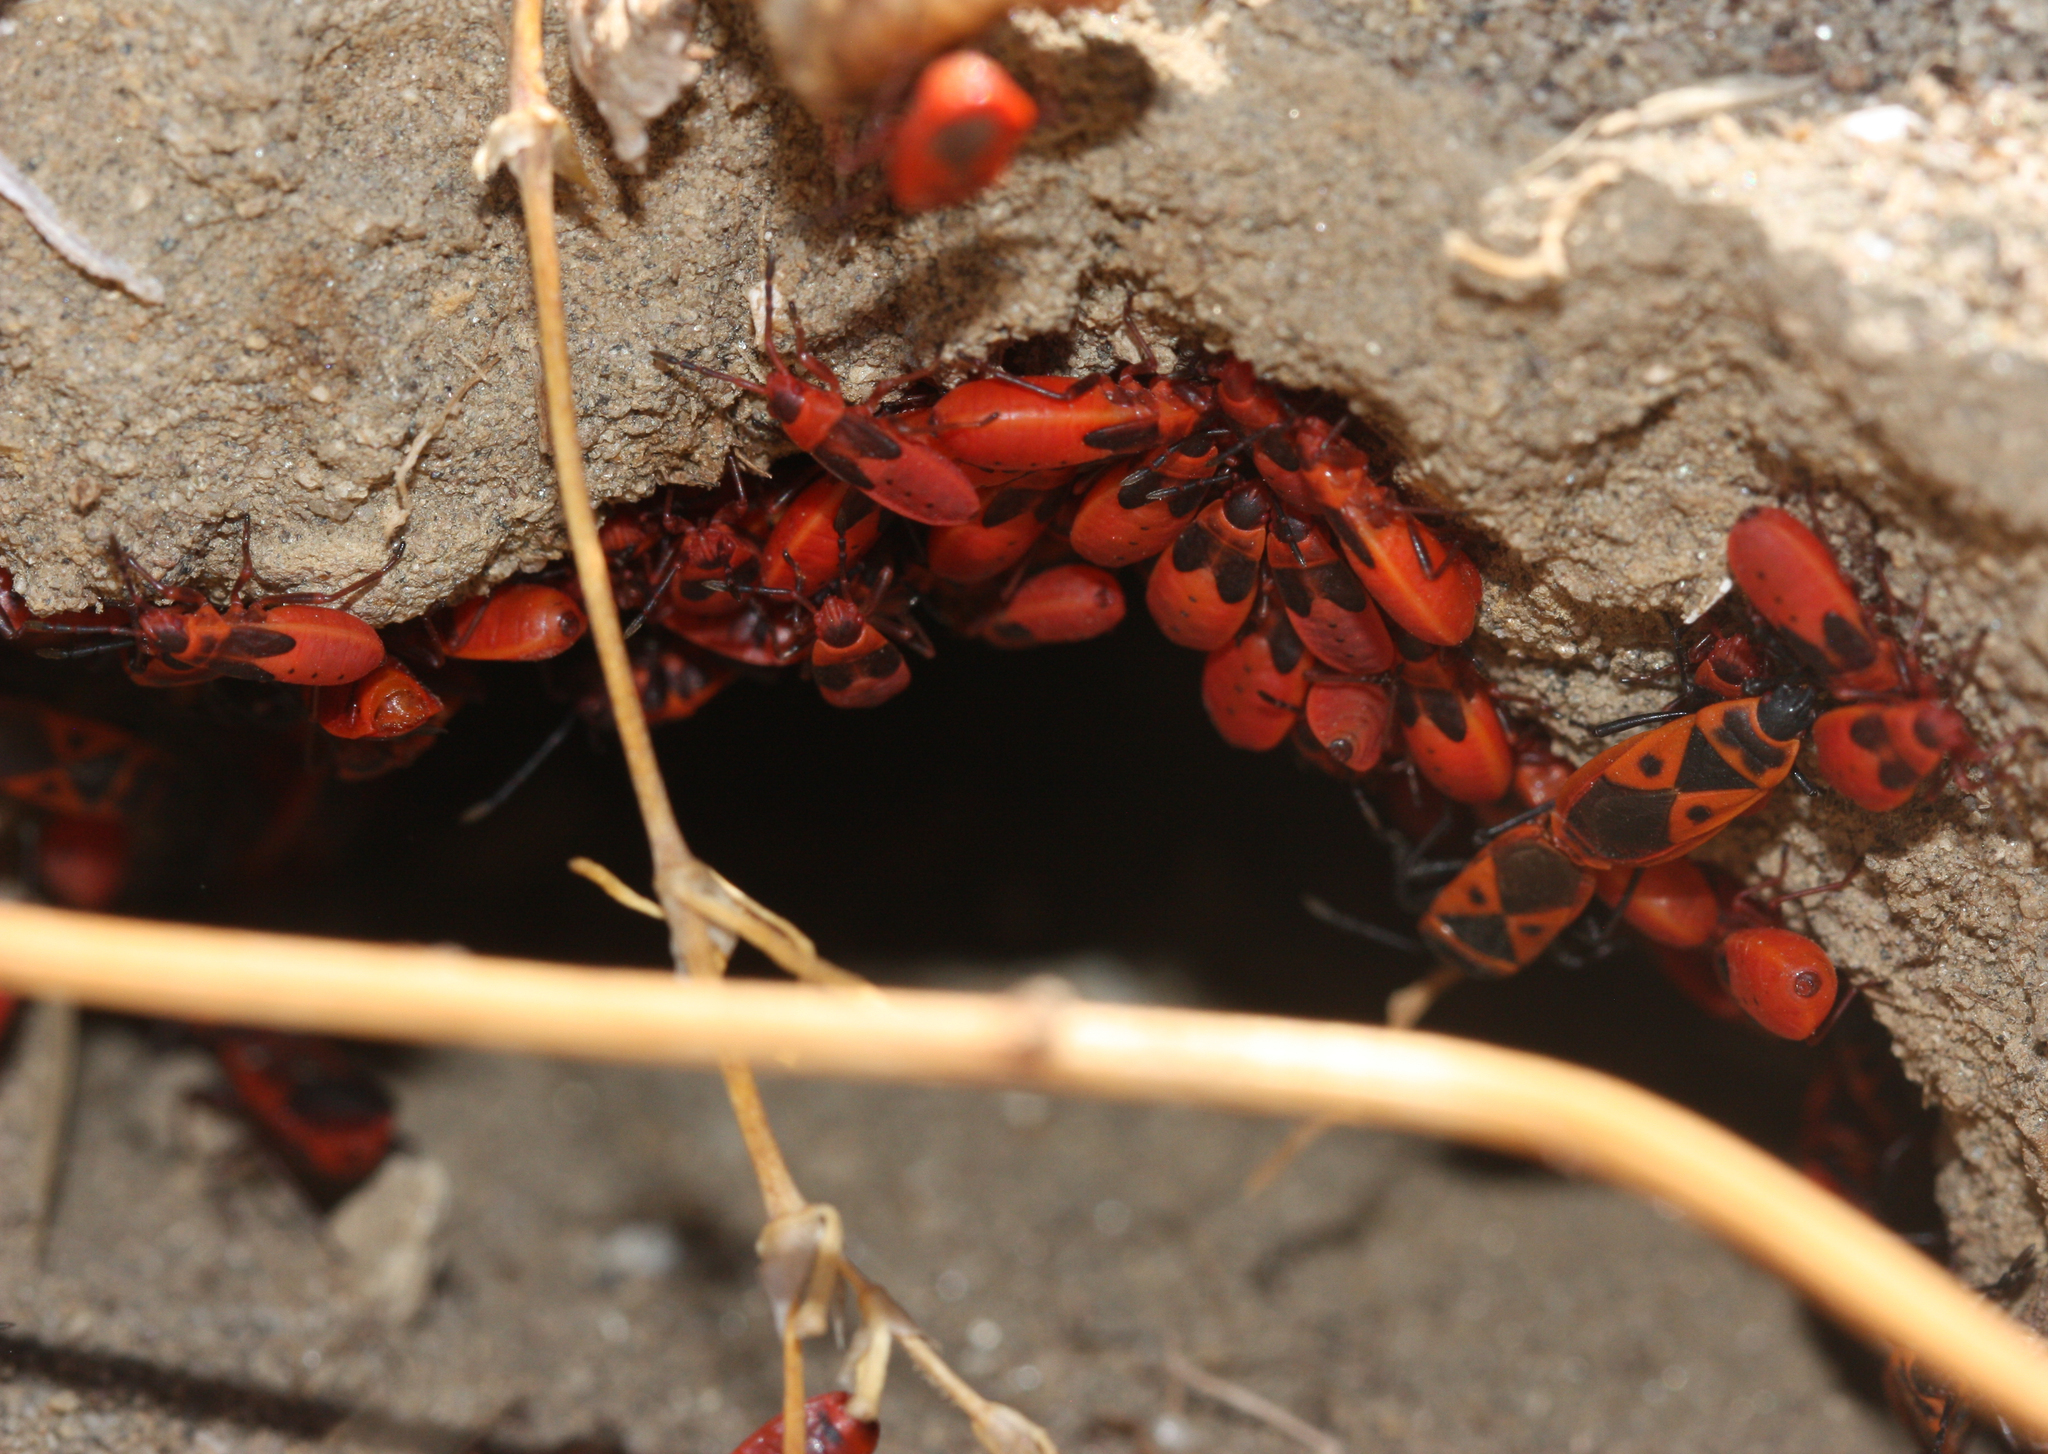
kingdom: Animalia
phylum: Arthropoda
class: Insecta
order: Hemiptera
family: Pyrrhocoridae
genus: Scantius
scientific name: Scantius aegyptius
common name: Red bug
